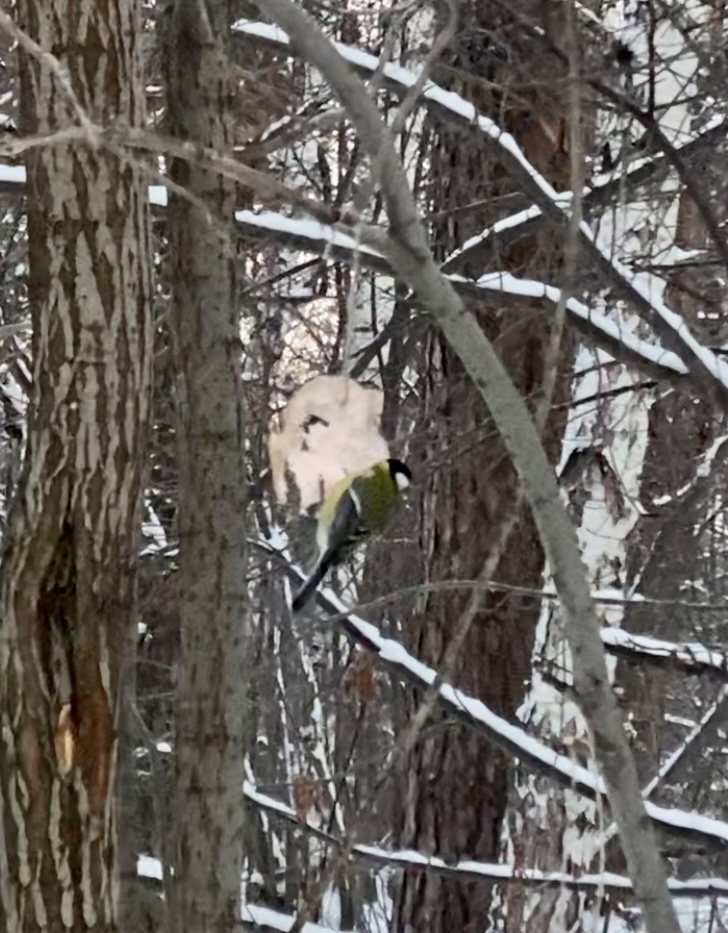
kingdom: Animalia
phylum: Chordata
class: Aves
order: Passeriformes
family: Paridae
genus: Parus
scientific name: Parus major
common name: Great tit
